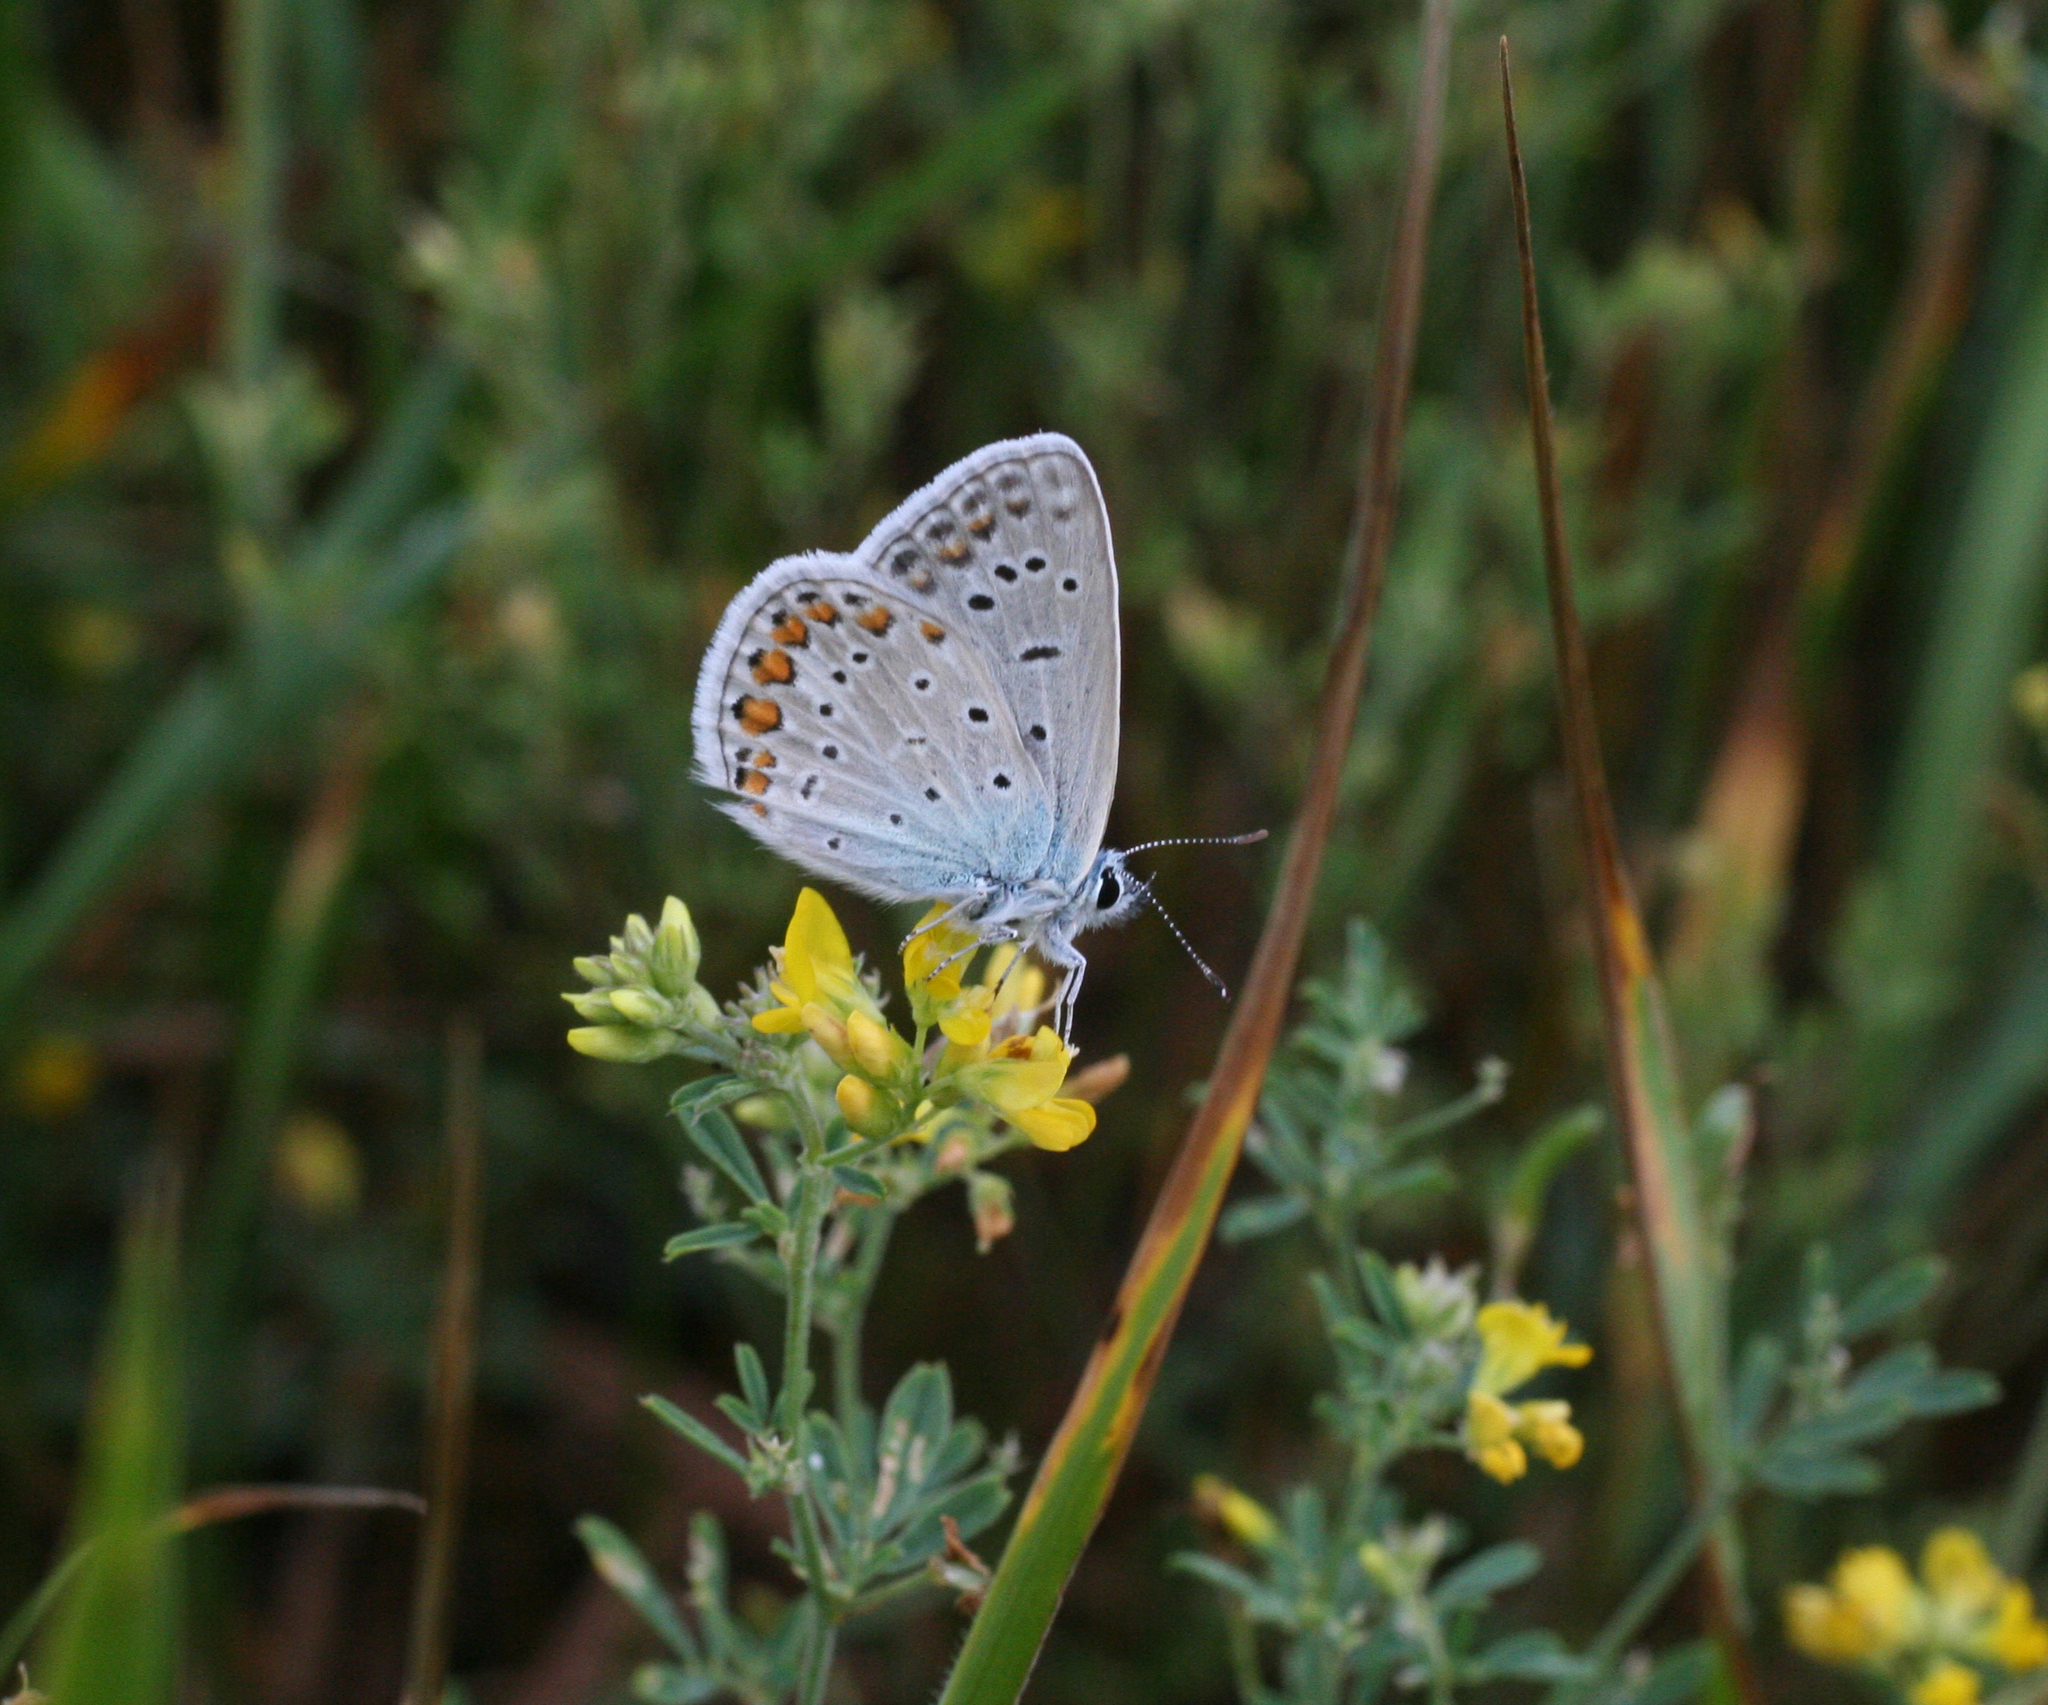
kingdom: Plantae
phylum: Tracheophyta
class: Magnoliopsida
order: Fabales
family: Fabaceae
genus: Medicago
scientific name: Medicago falcata
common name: Sickle medick
